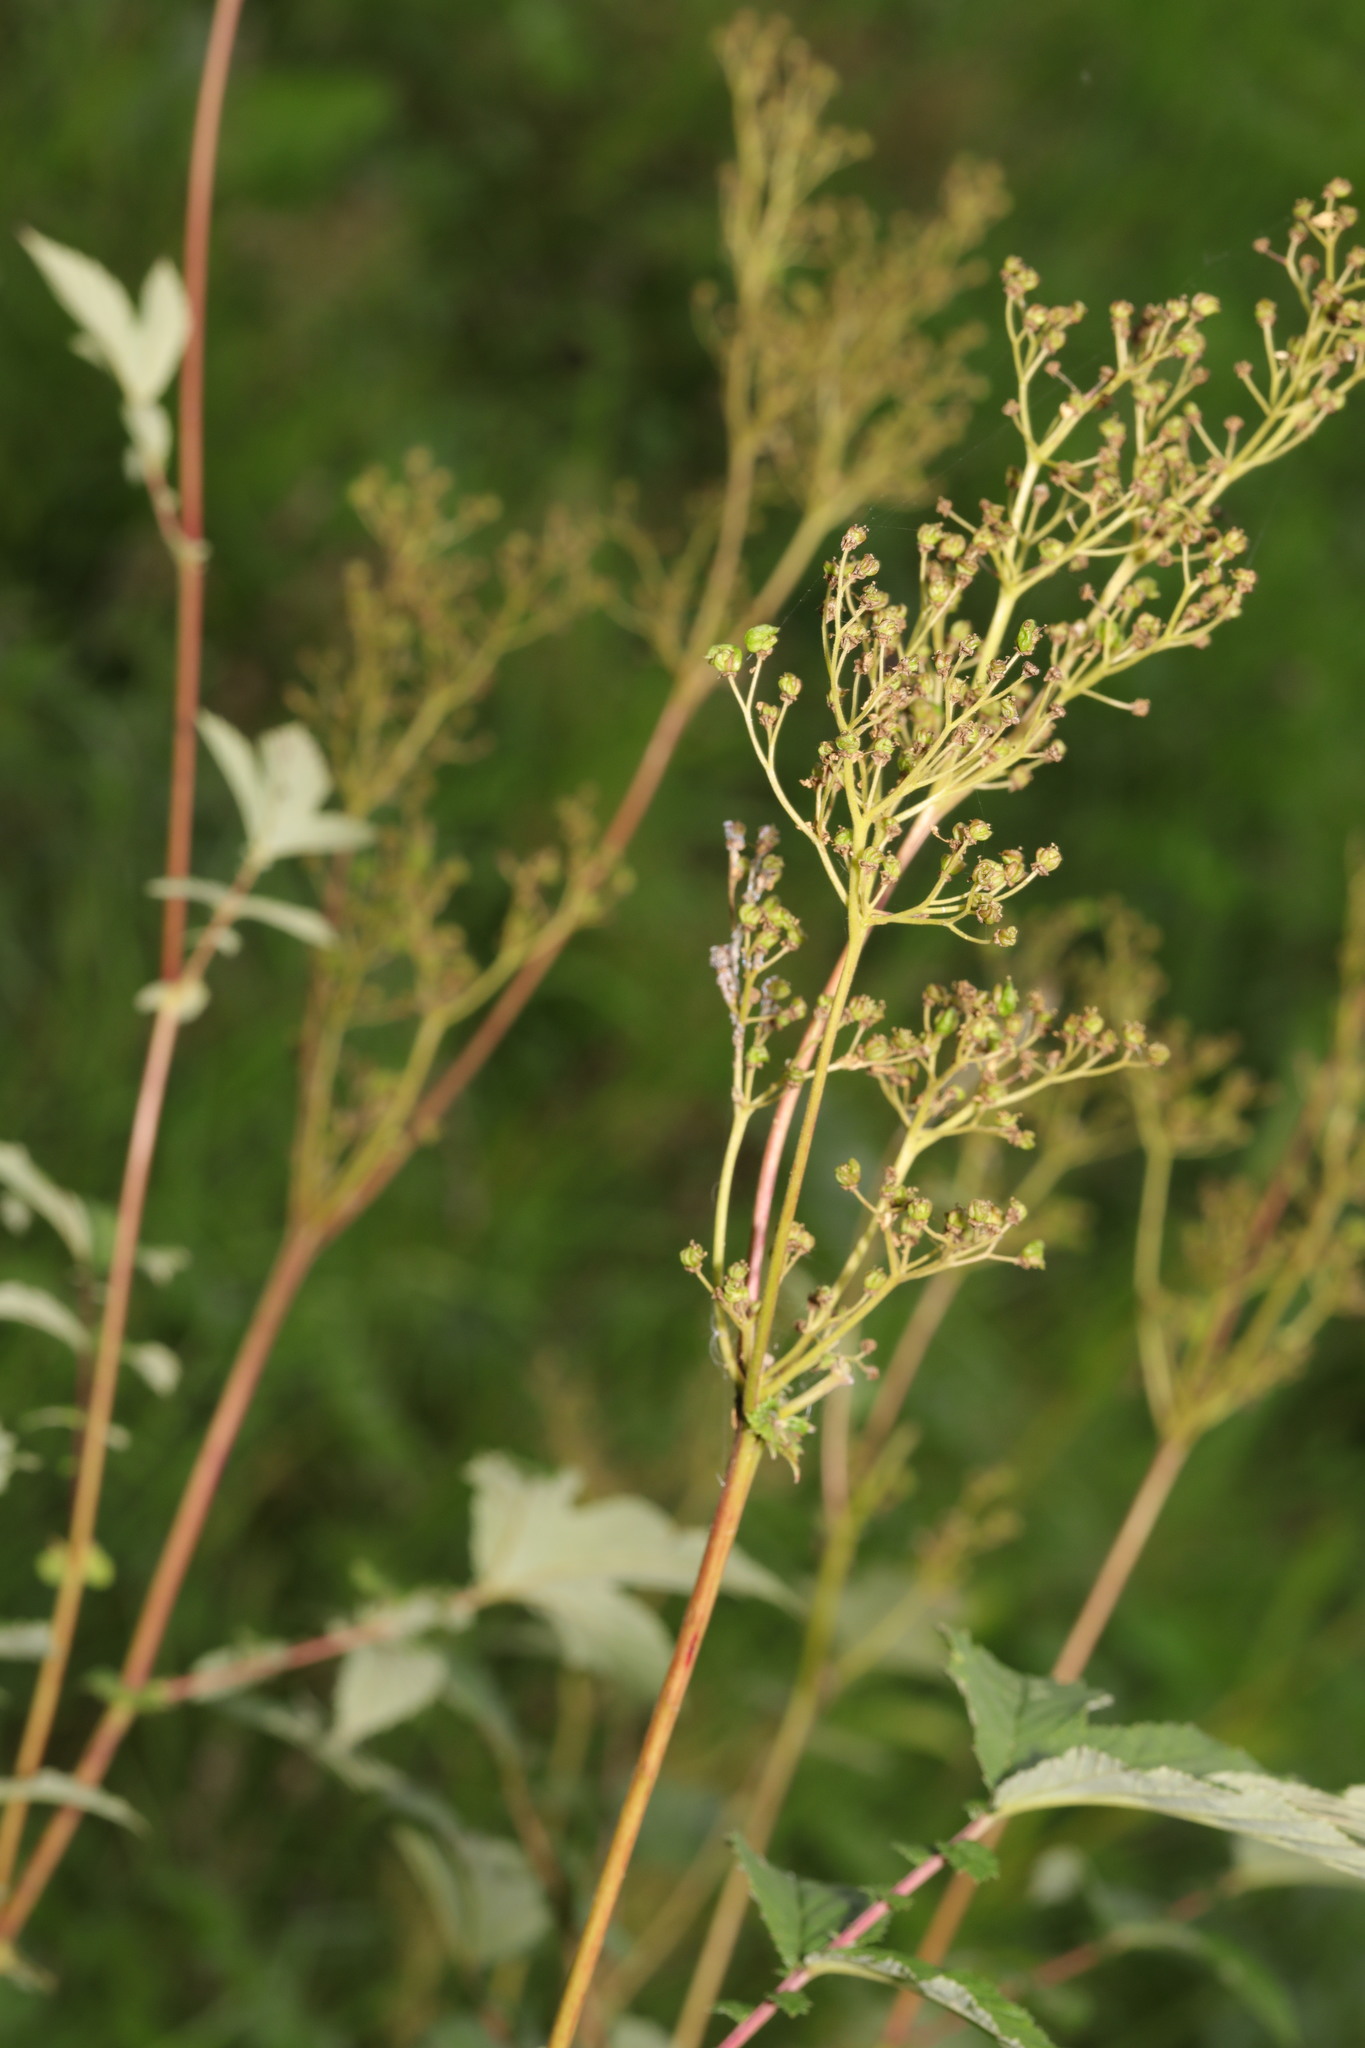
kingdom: Plantae
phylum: Tracheophyta
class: Magnoliopsida
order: Rosales
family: Rosaceae
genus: Filipendula
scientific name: Filipendula ulmaria
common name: Meadowsweet
